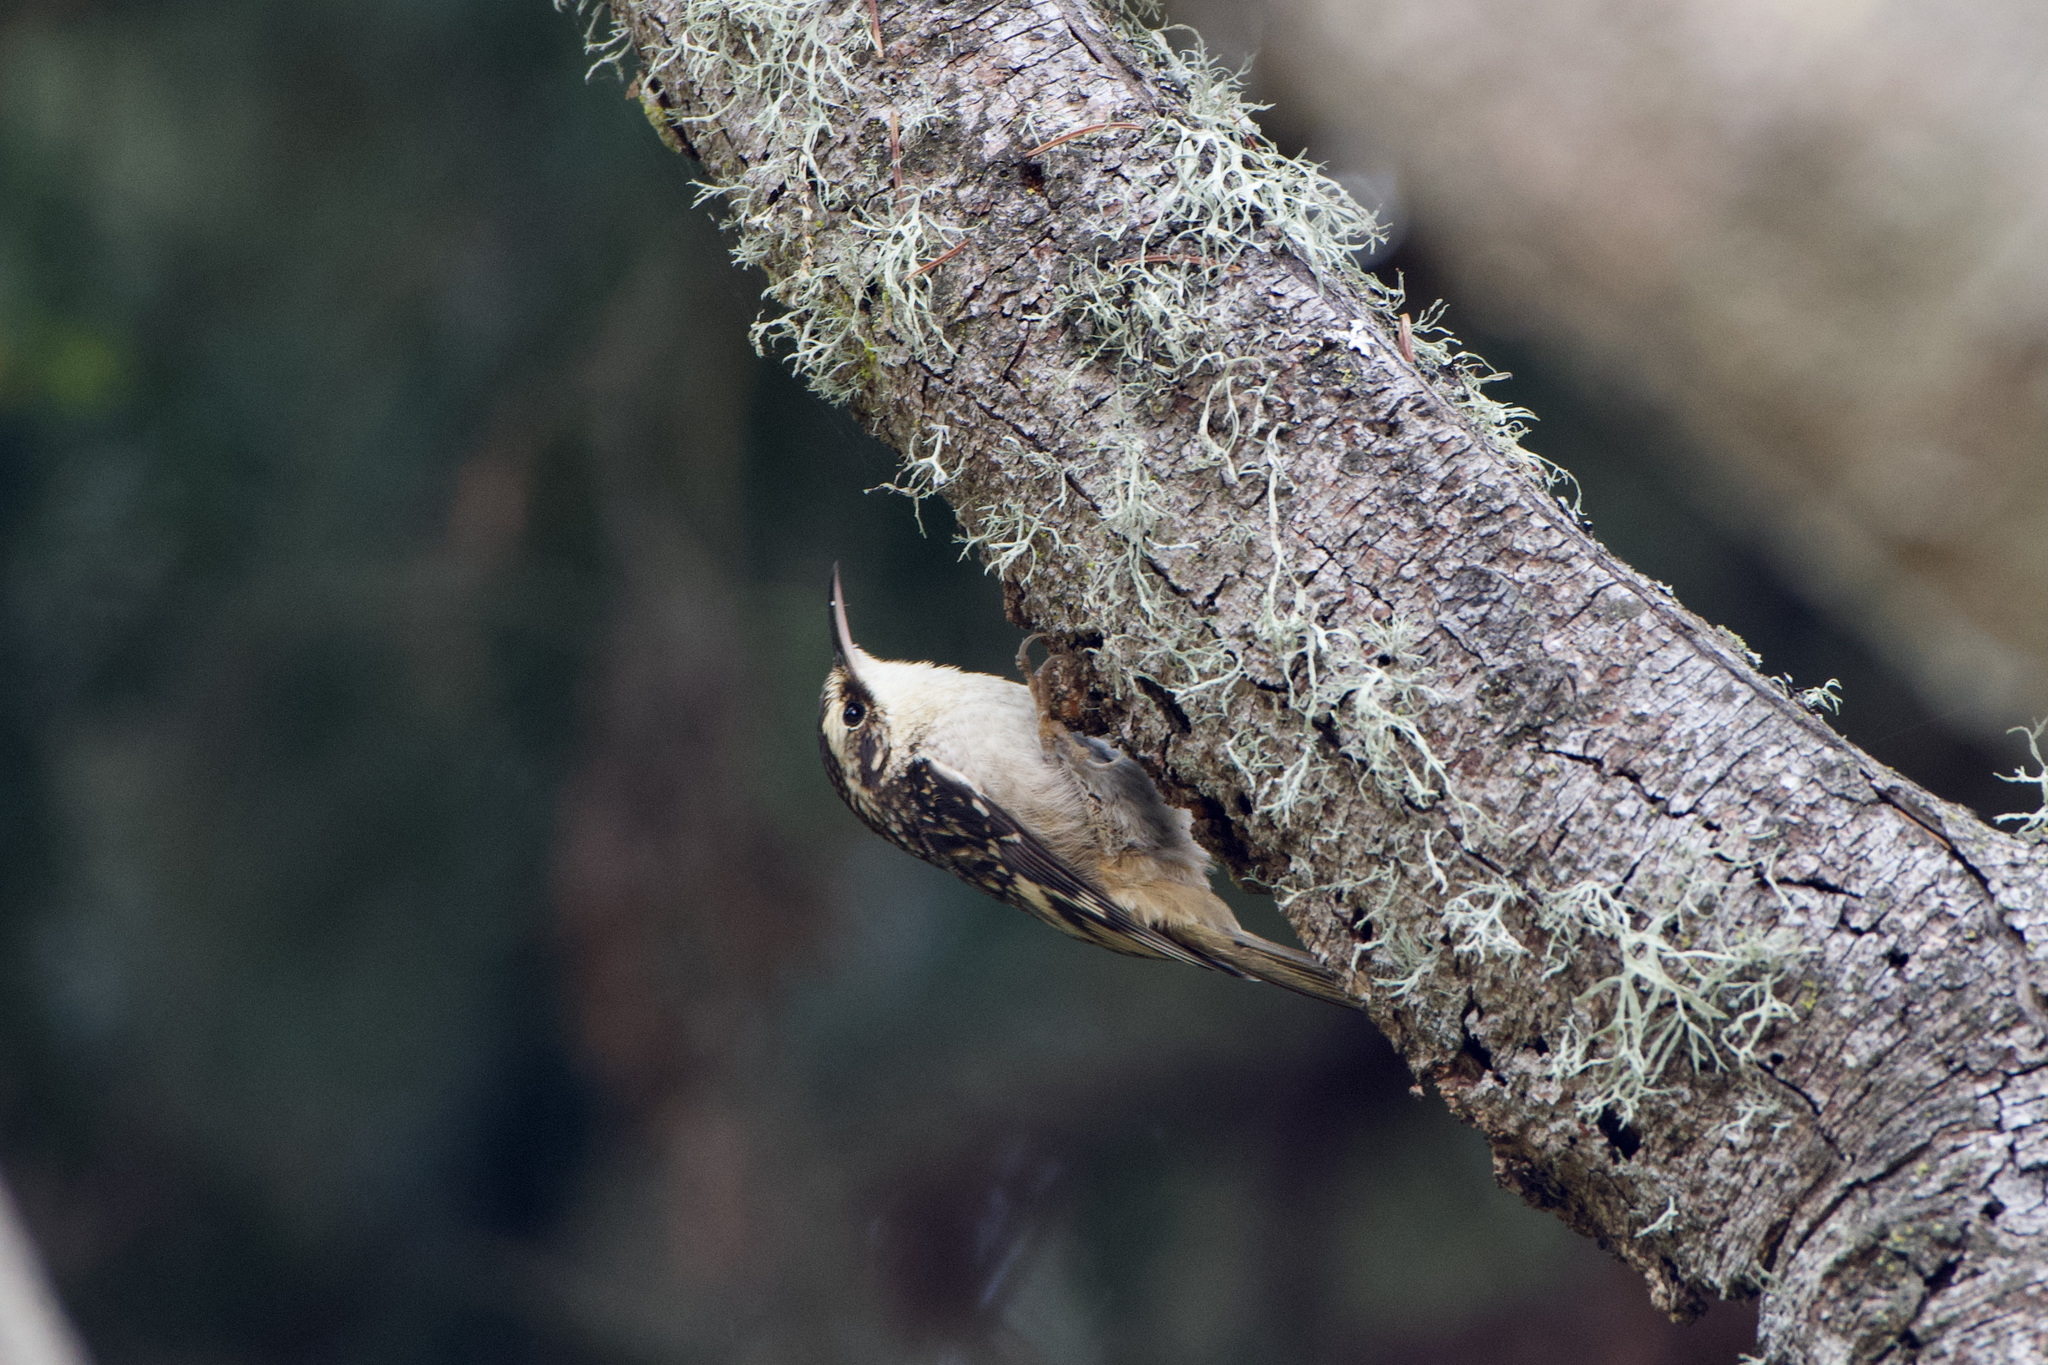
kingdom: Animalia
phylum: Chordata
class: Aves
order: Passeriformes
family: Certhiidae
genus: Certhia
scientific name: Certhia americana
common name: Brown creeper
